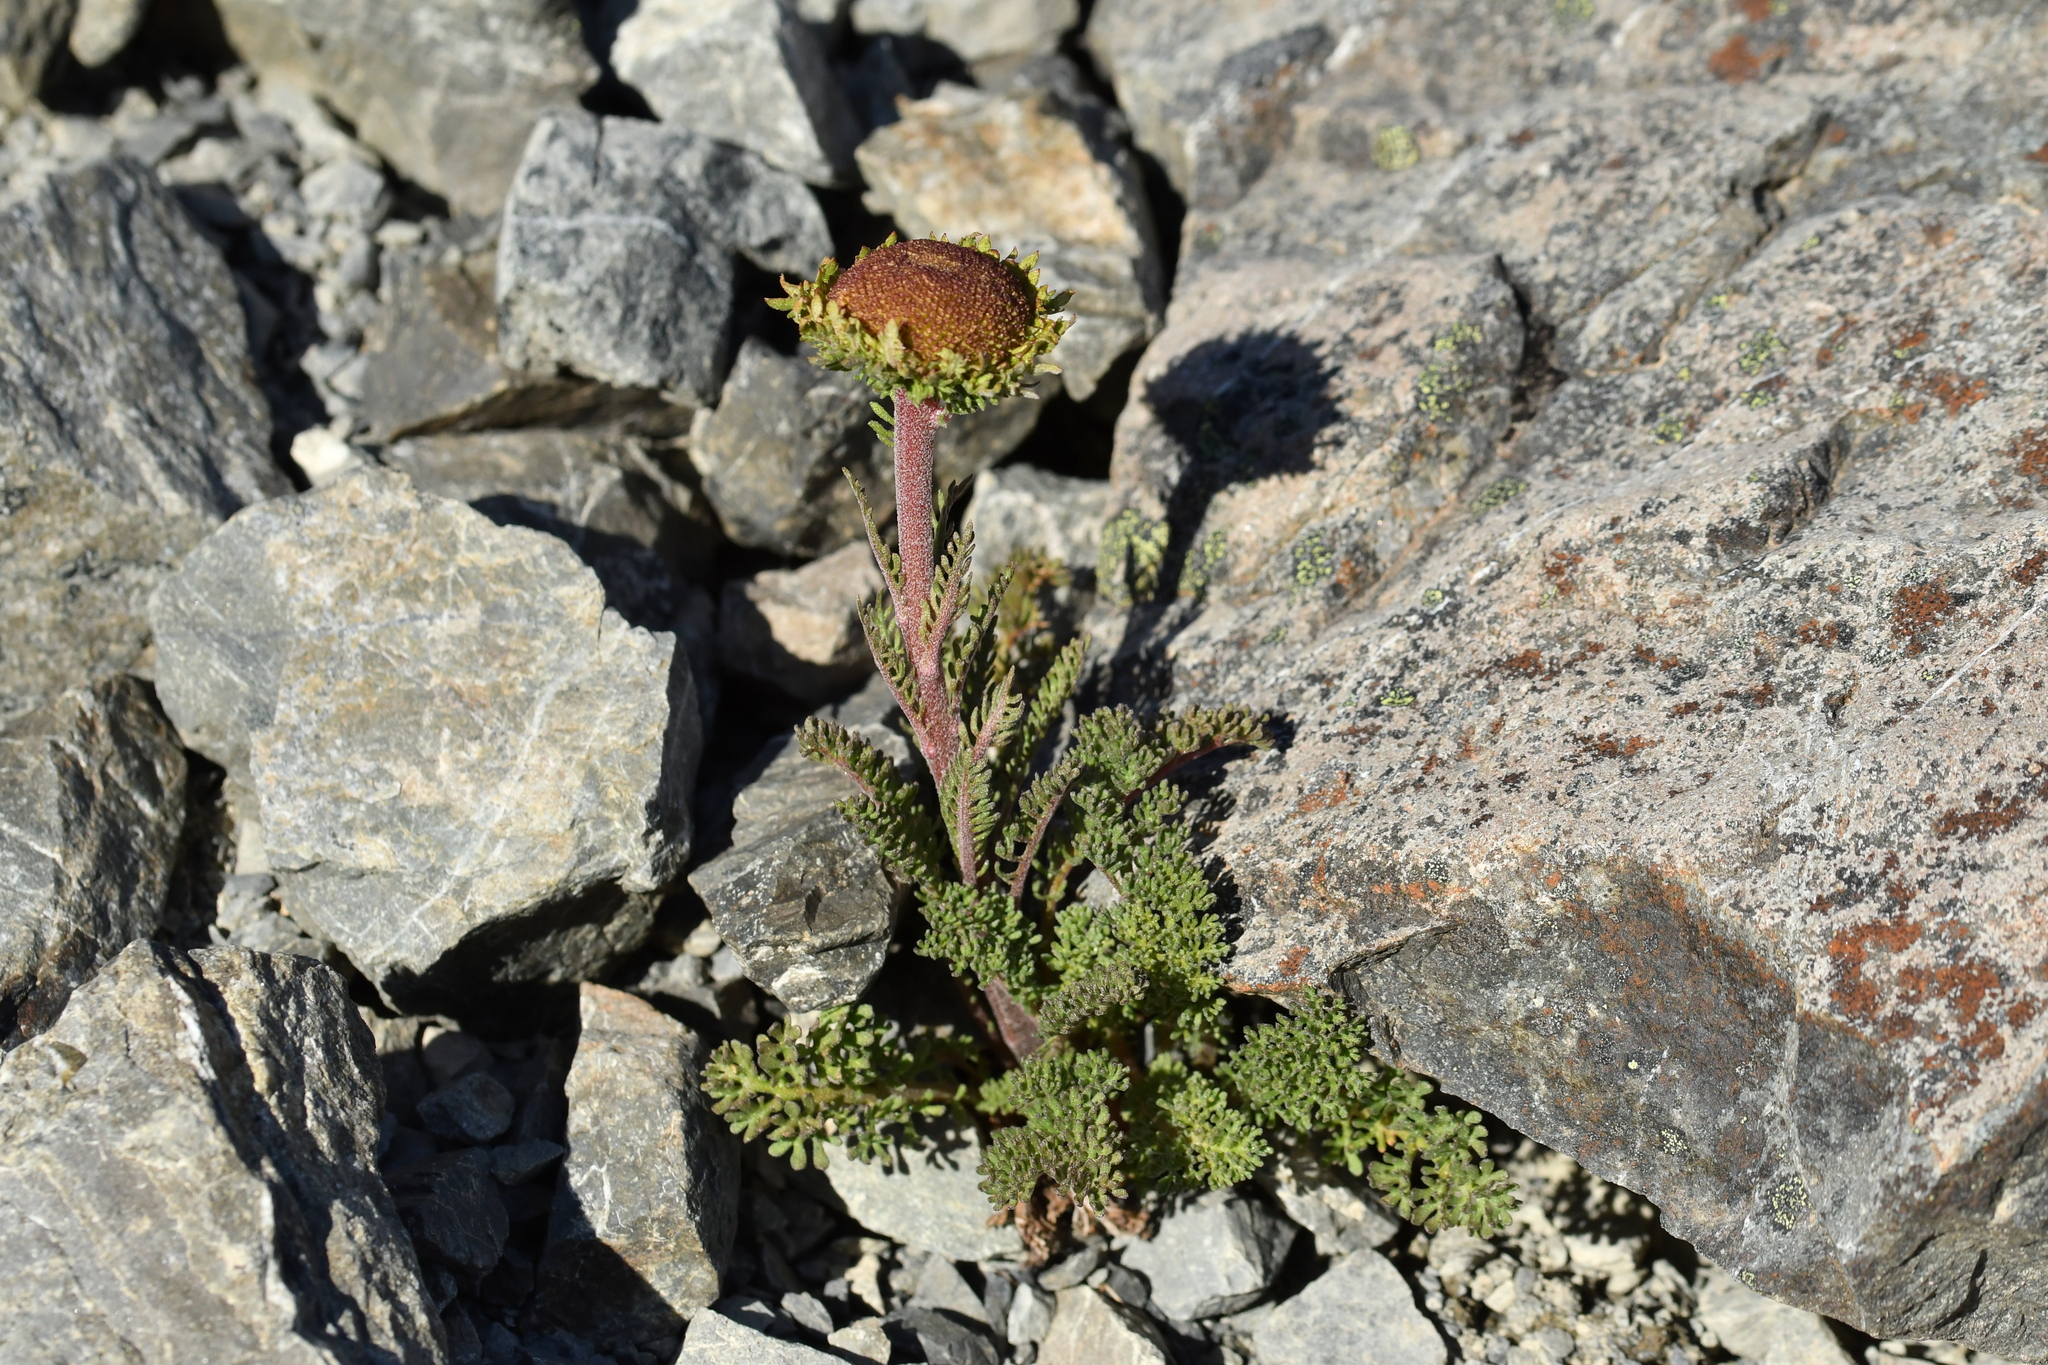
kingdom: Plantae
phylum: Tracheophyta
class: Magnoliopsida
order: Asterales
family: Asteraceae
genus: Leptinella
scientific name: Leptinella dendyi
